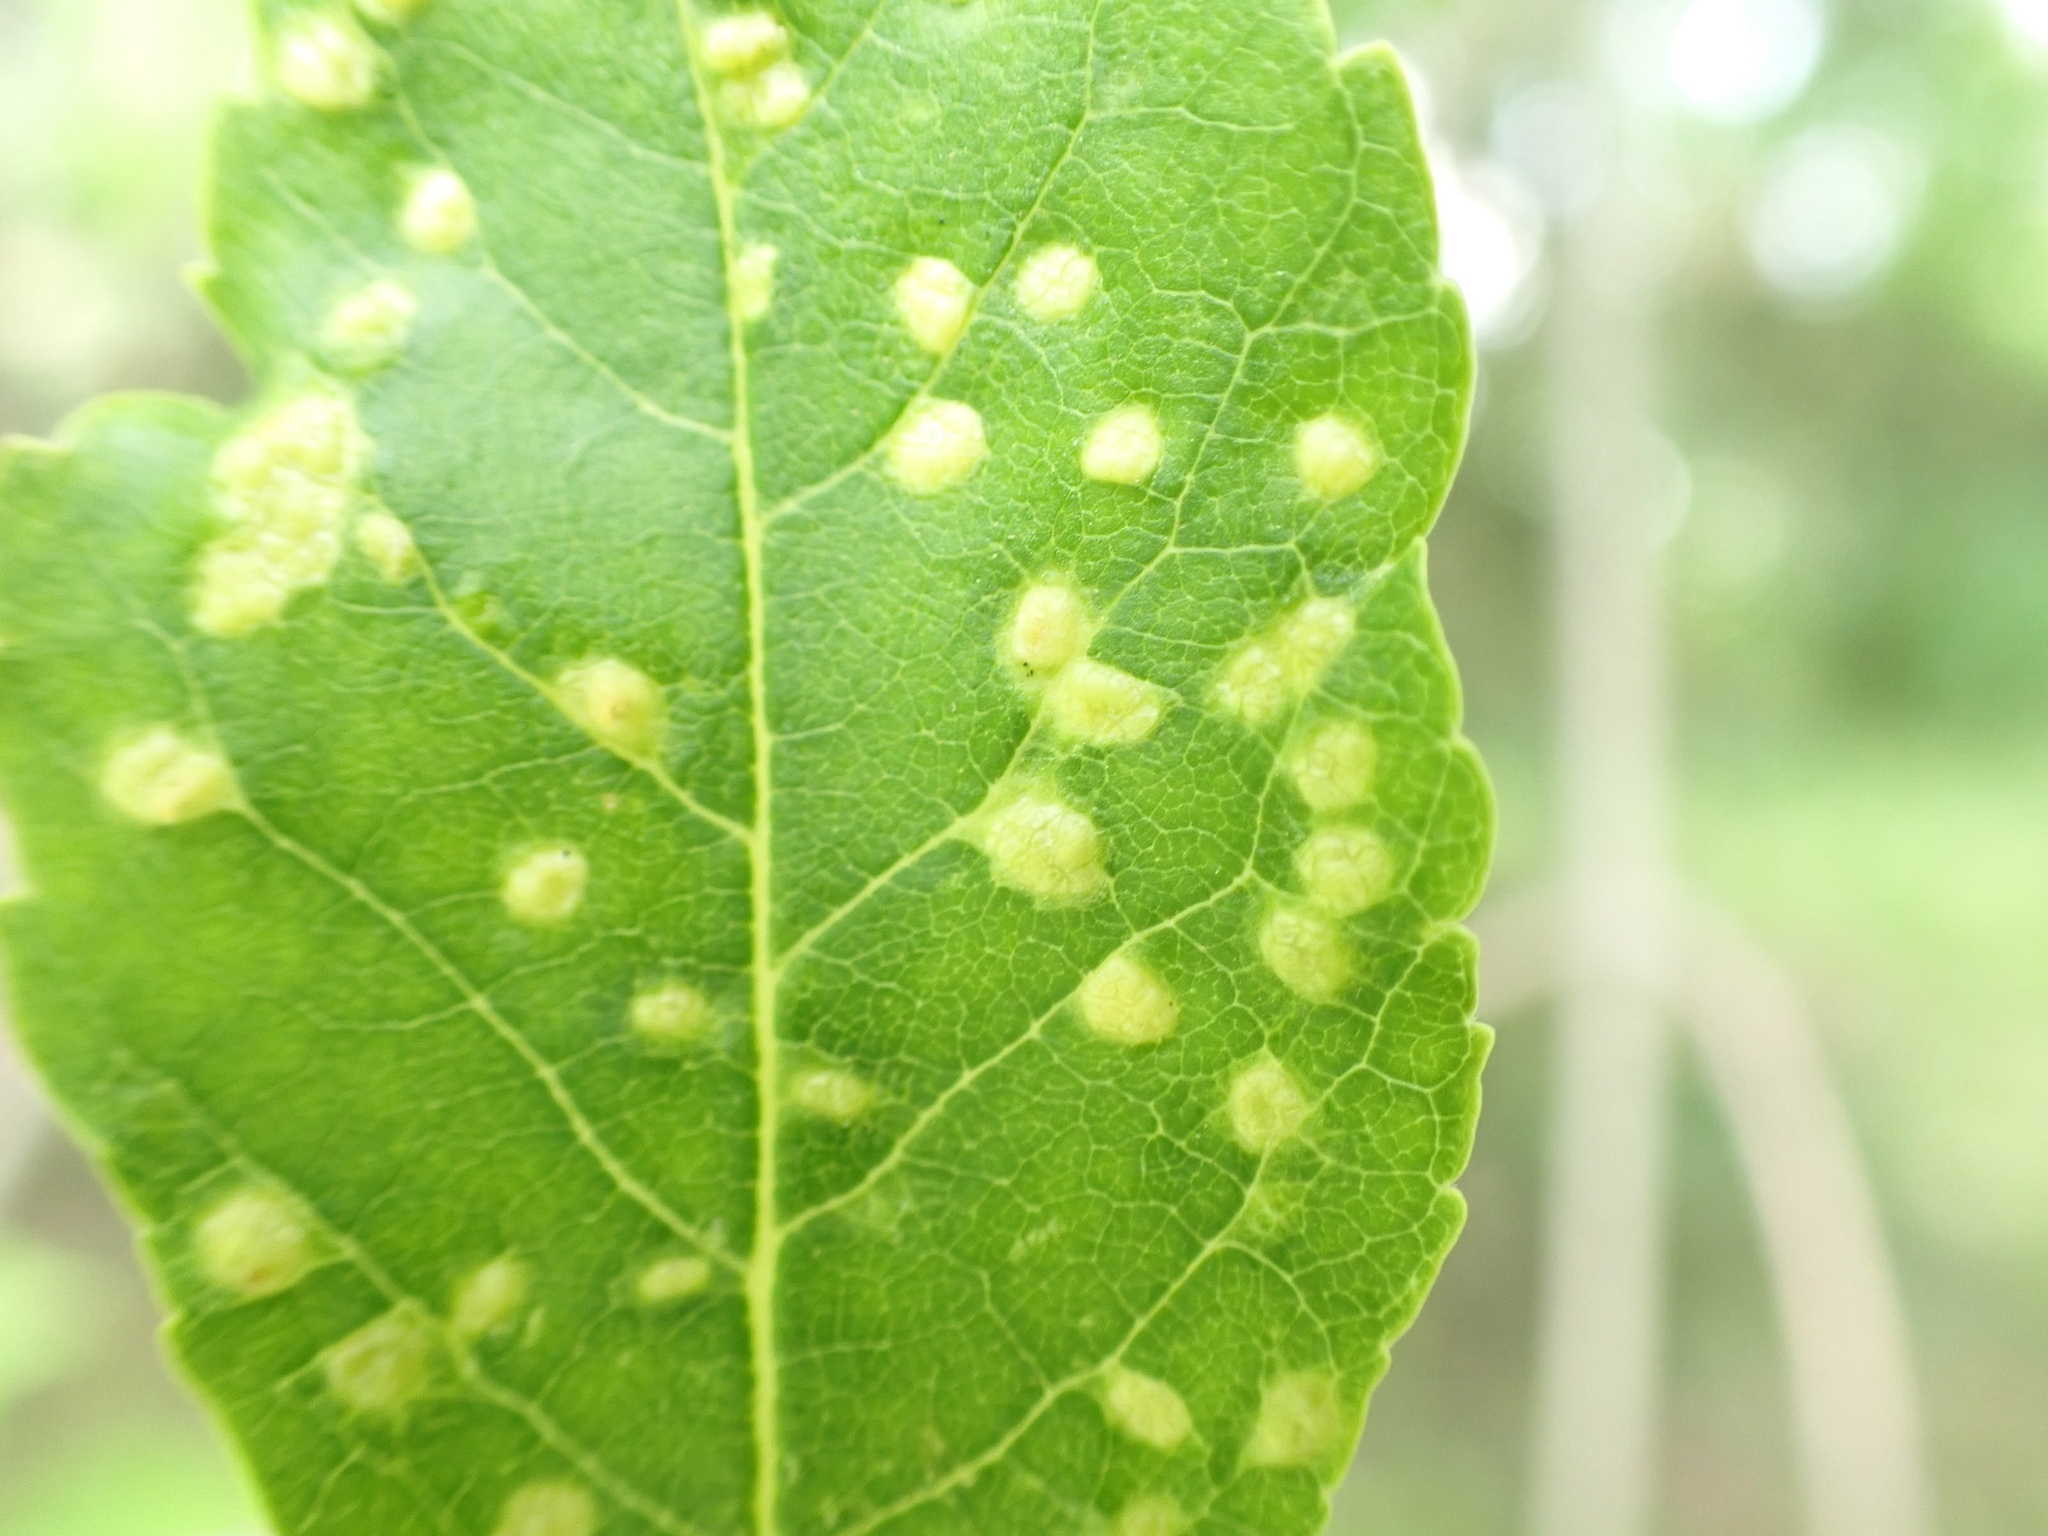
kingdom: Animalia
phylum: Arthropoda
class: Arachnida
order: Trombidiformes
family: Eriophyidae
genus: Aceria
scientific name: Aceria fraxinicola
